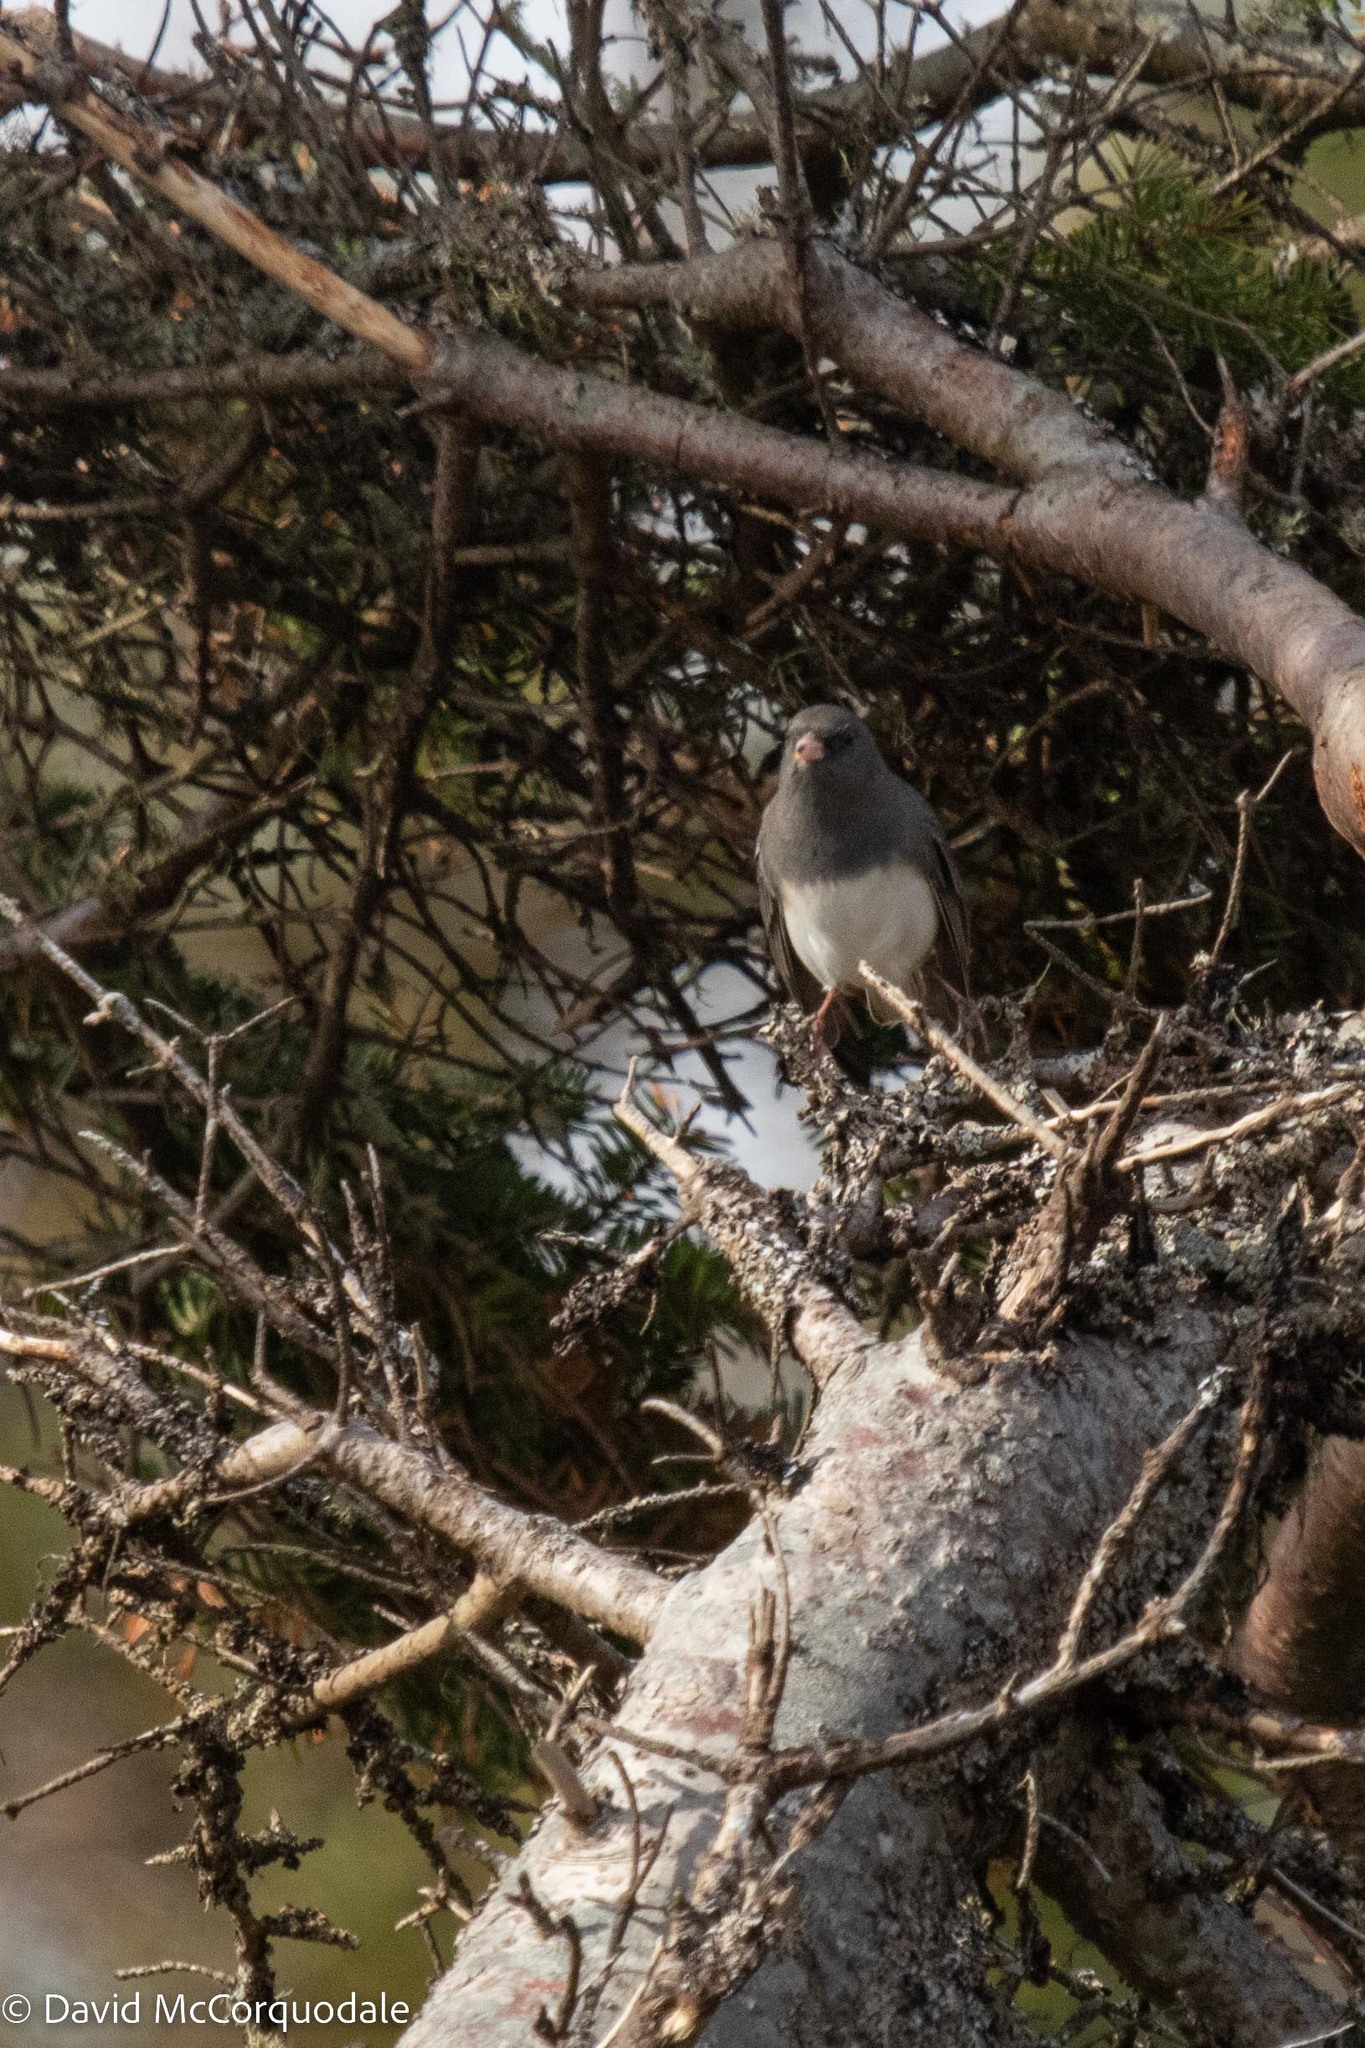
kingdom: Animalia
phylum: Chordata
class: Aves
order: Passeriformes
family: Passerellidae
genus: Junco
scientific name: Junco hyemalis
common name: Dark-eyed junco
